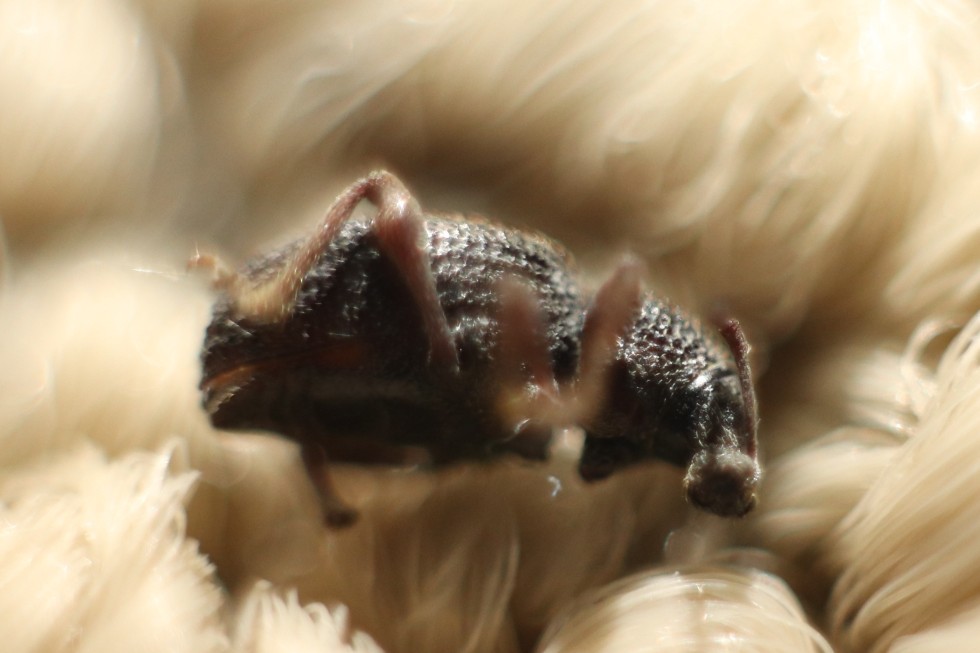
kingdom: Animalia
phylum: Arthropoda
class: Insecta
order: Coleoptera
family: Curculionidae
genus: Otiorhynchus
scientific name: Otiorhynchus ovatus
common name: Strawberry root weevil
